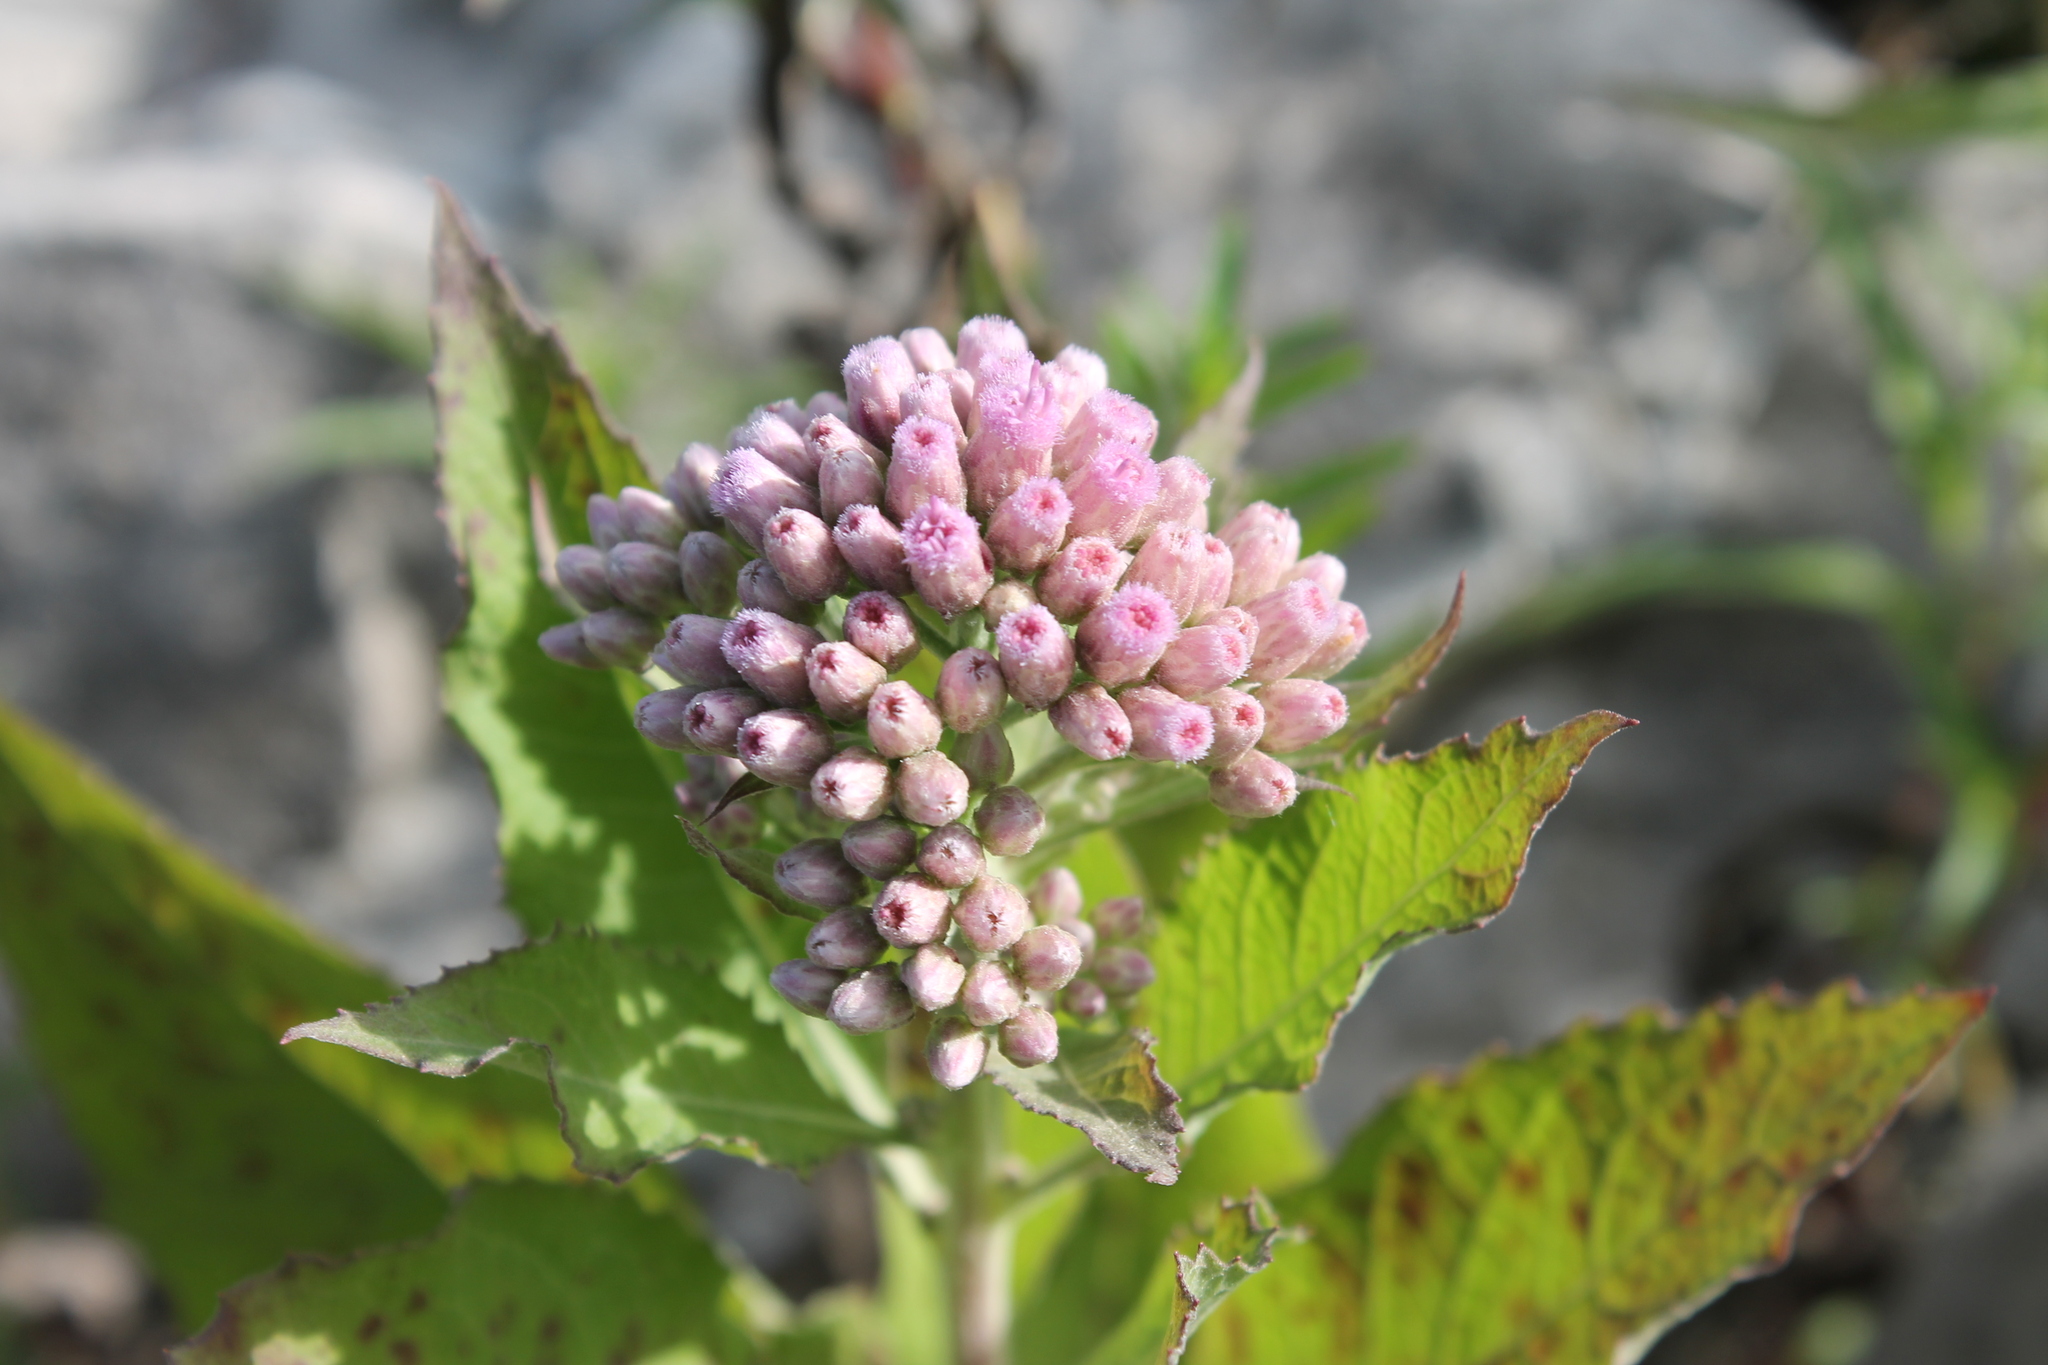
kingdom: Plantae
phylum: Tracheophyta
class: Magnoliopsida
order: Asterales
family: Asteraceae
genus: Pluchea
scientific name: Pluchea camphorata
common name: Camphor pluchea
